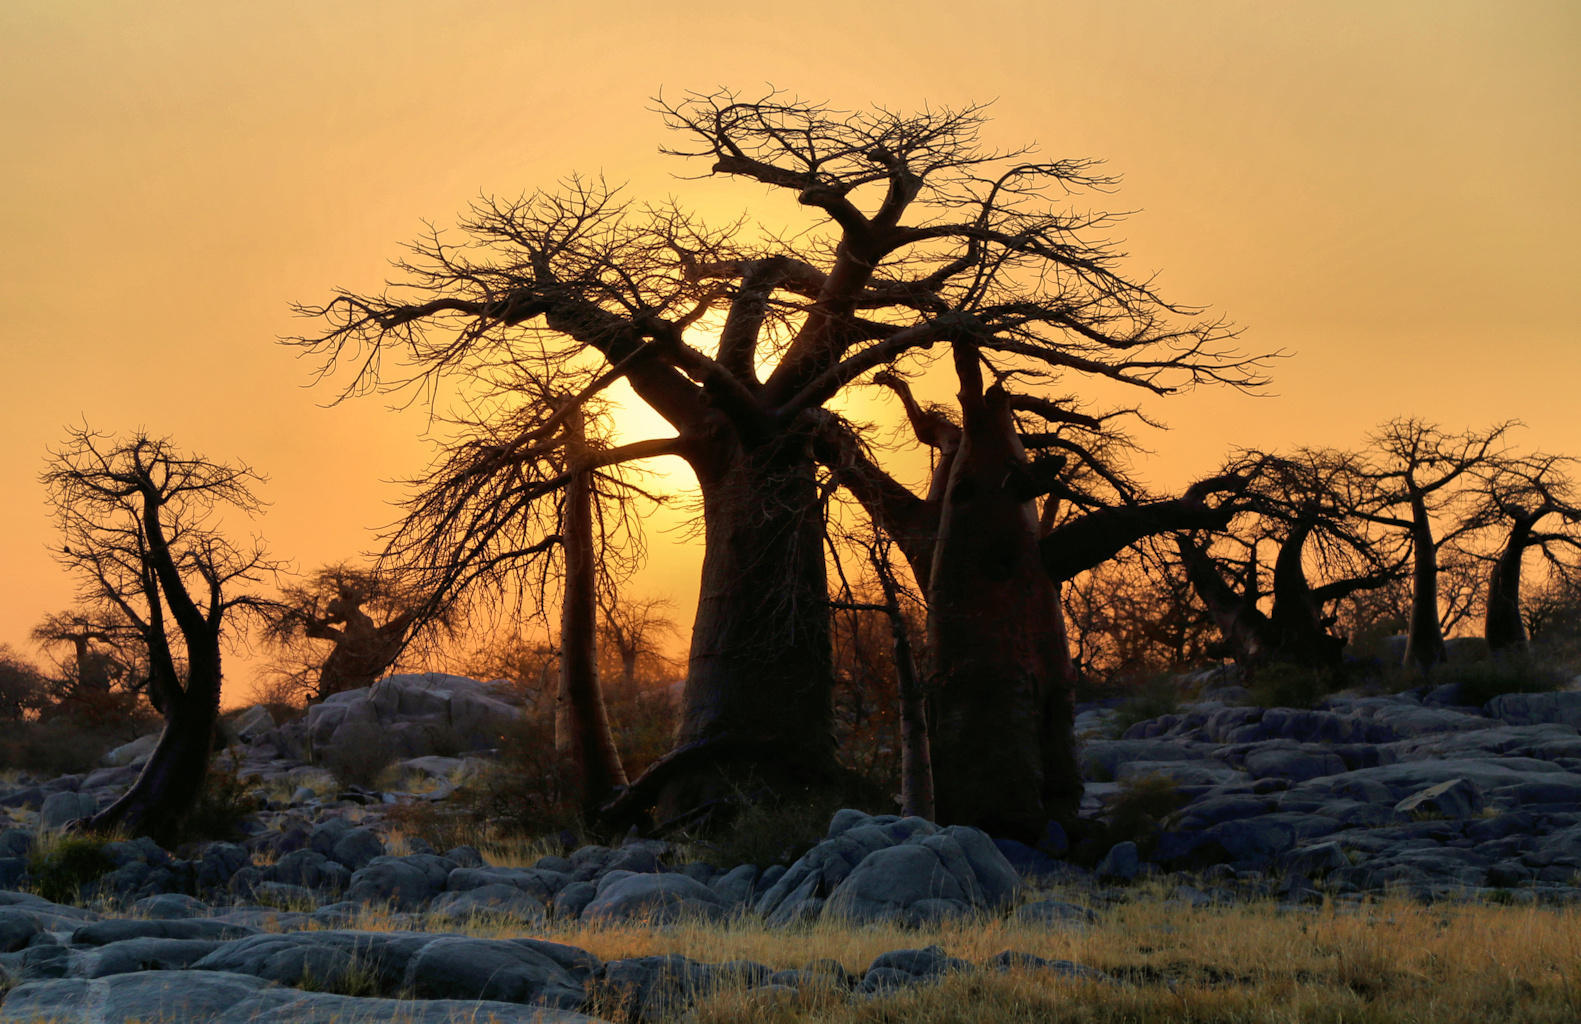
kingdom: Plantae
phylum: Tracheophyta
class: Magnoliopsida
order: Malvales
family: Malvaceae
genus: Adansonia
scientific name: Adansonia digitata
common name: Dead-rat-tree
